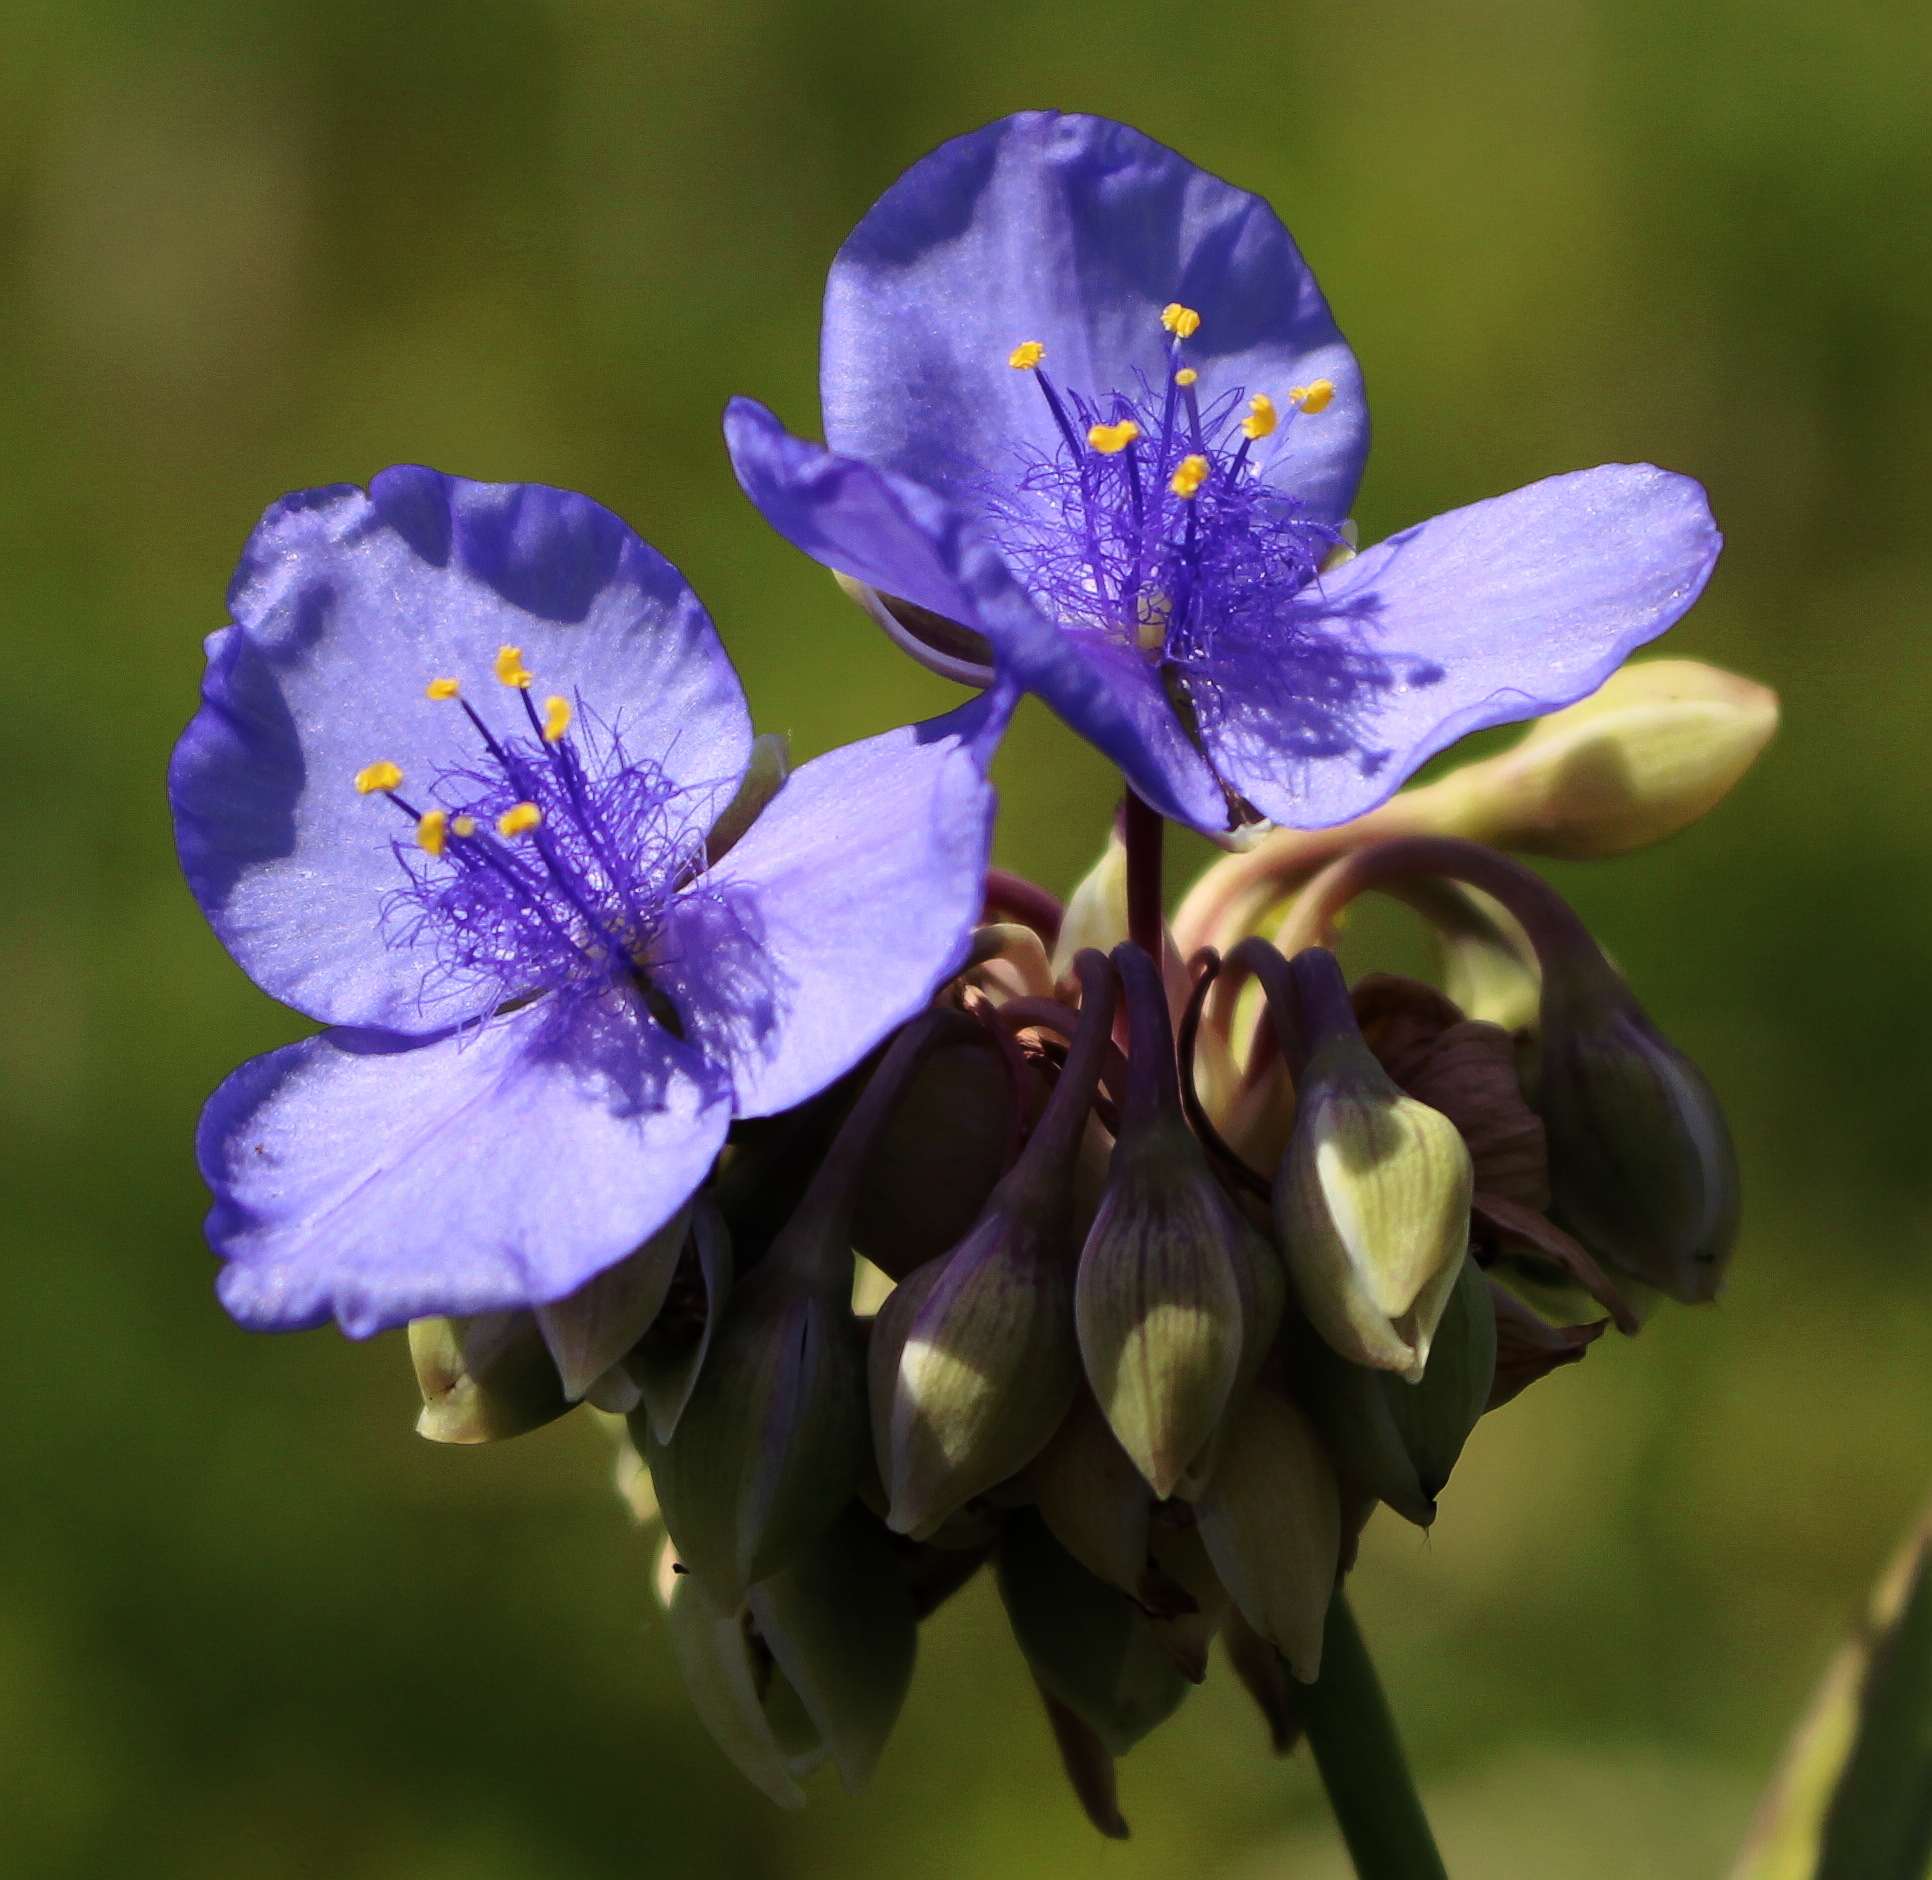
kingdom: Plantae
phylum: Tracheophyta
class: Liliopsida
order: Commelinales
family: Commelinaceae
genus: Tradescantia
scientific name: Tradescantia ohiensis
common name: Ohio spiderwort
